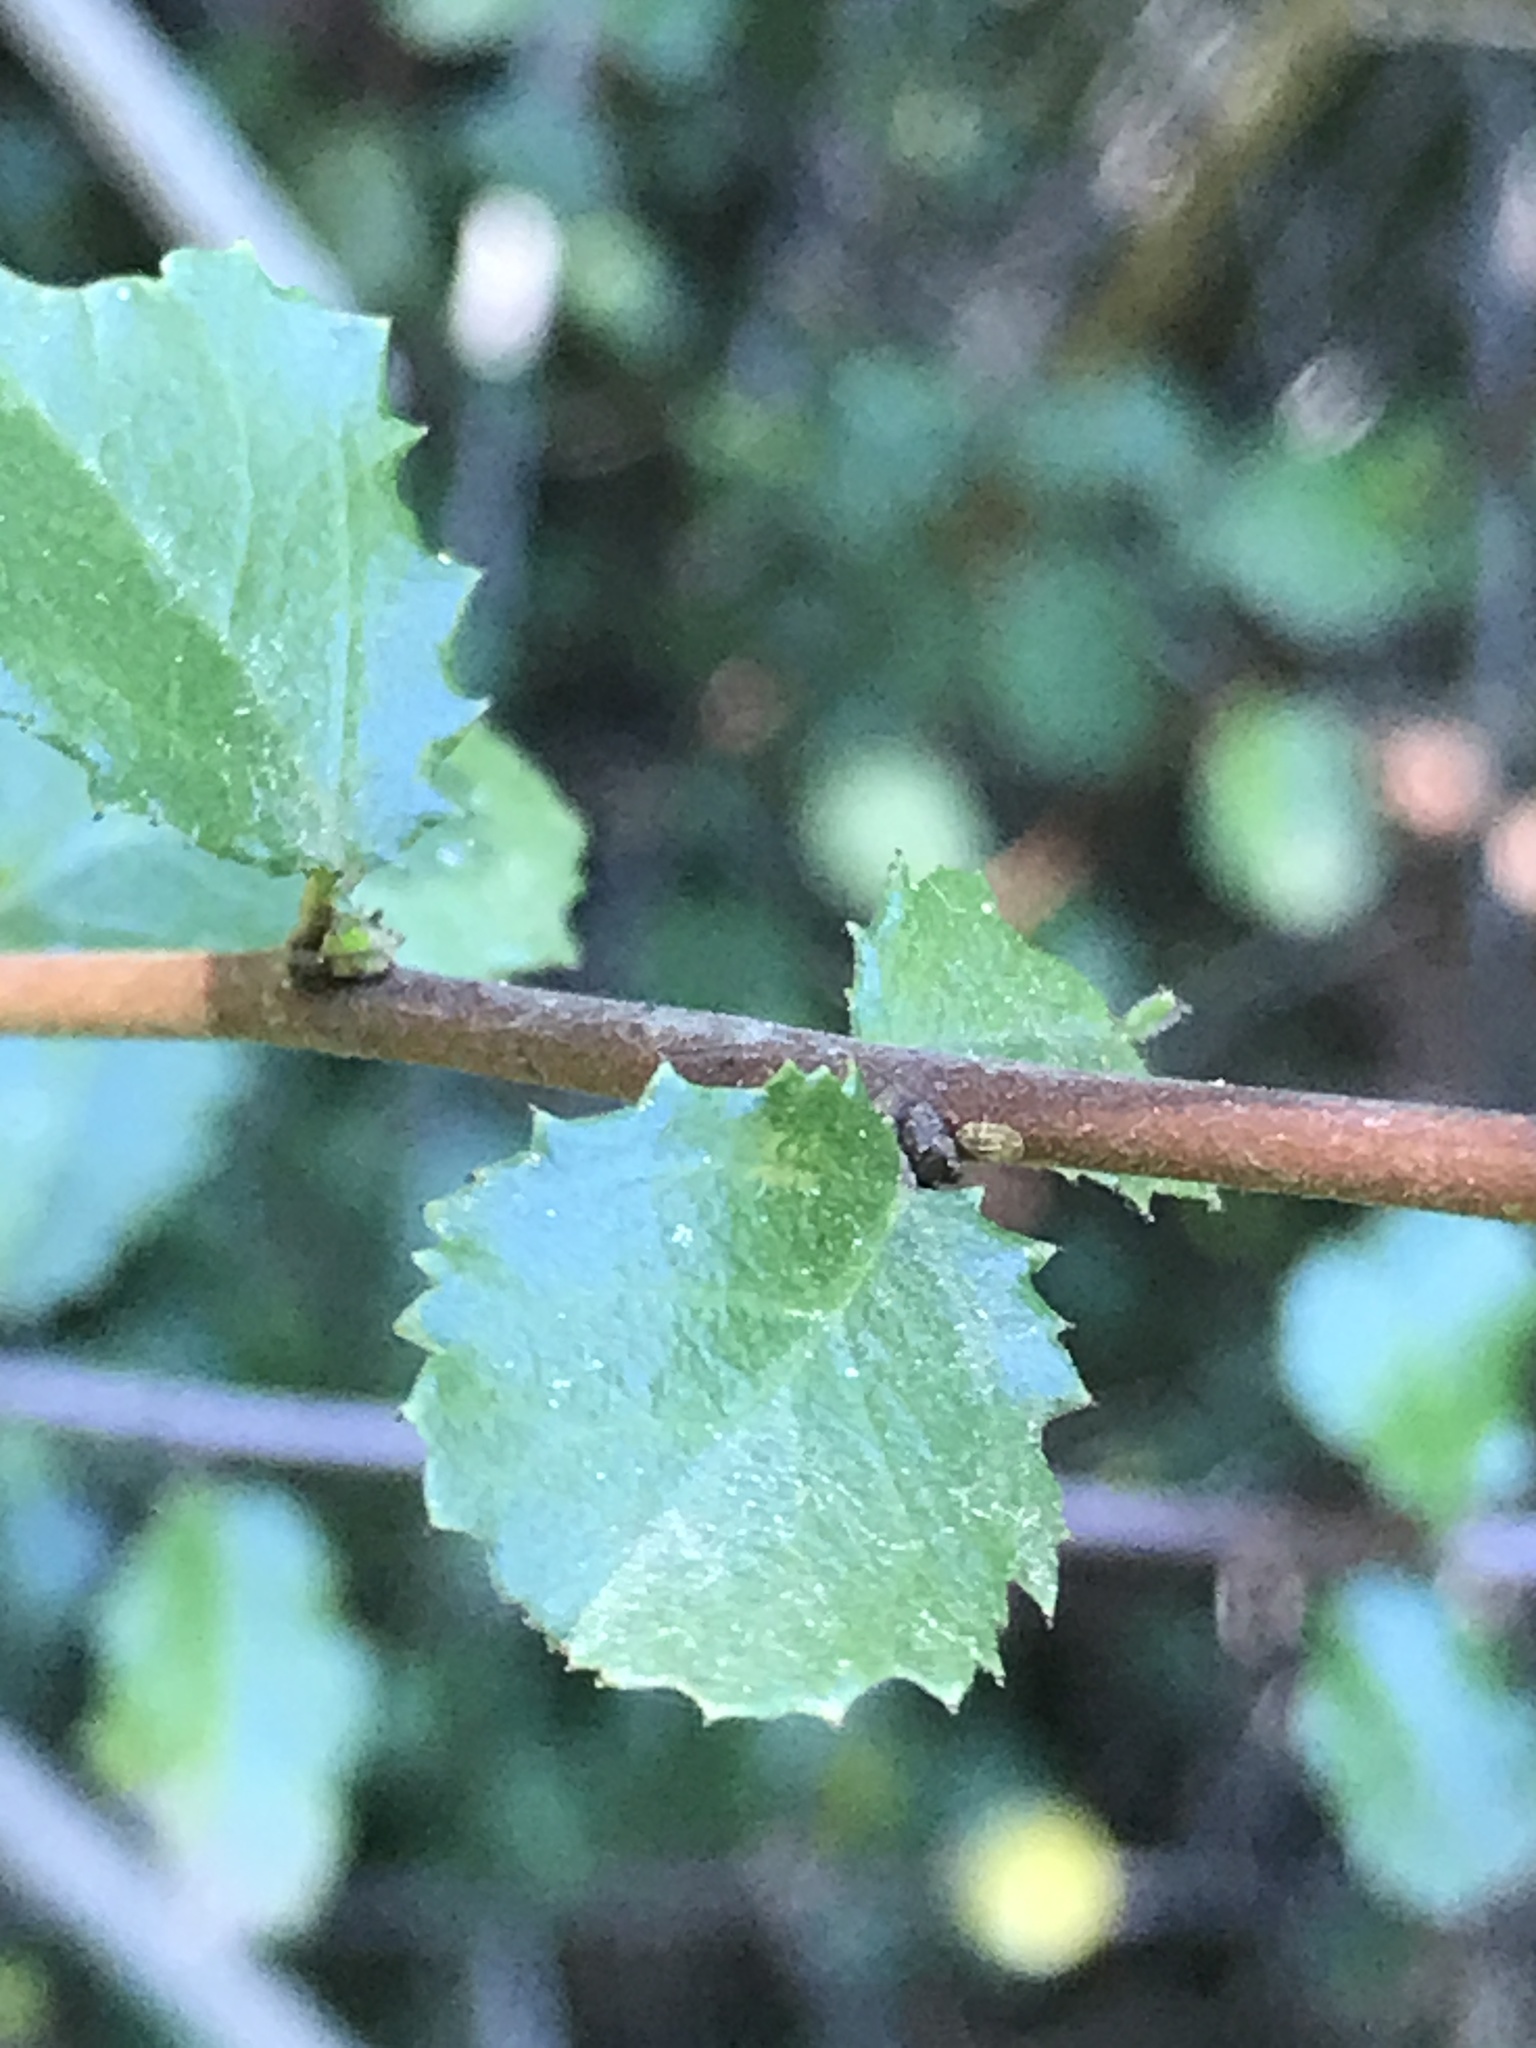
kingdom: Plantae
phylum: Tracheophyta
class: Magnoliopsida
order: Rosales
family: Rhamnaceae
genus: Endotropis
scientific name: Endotropis crocea
